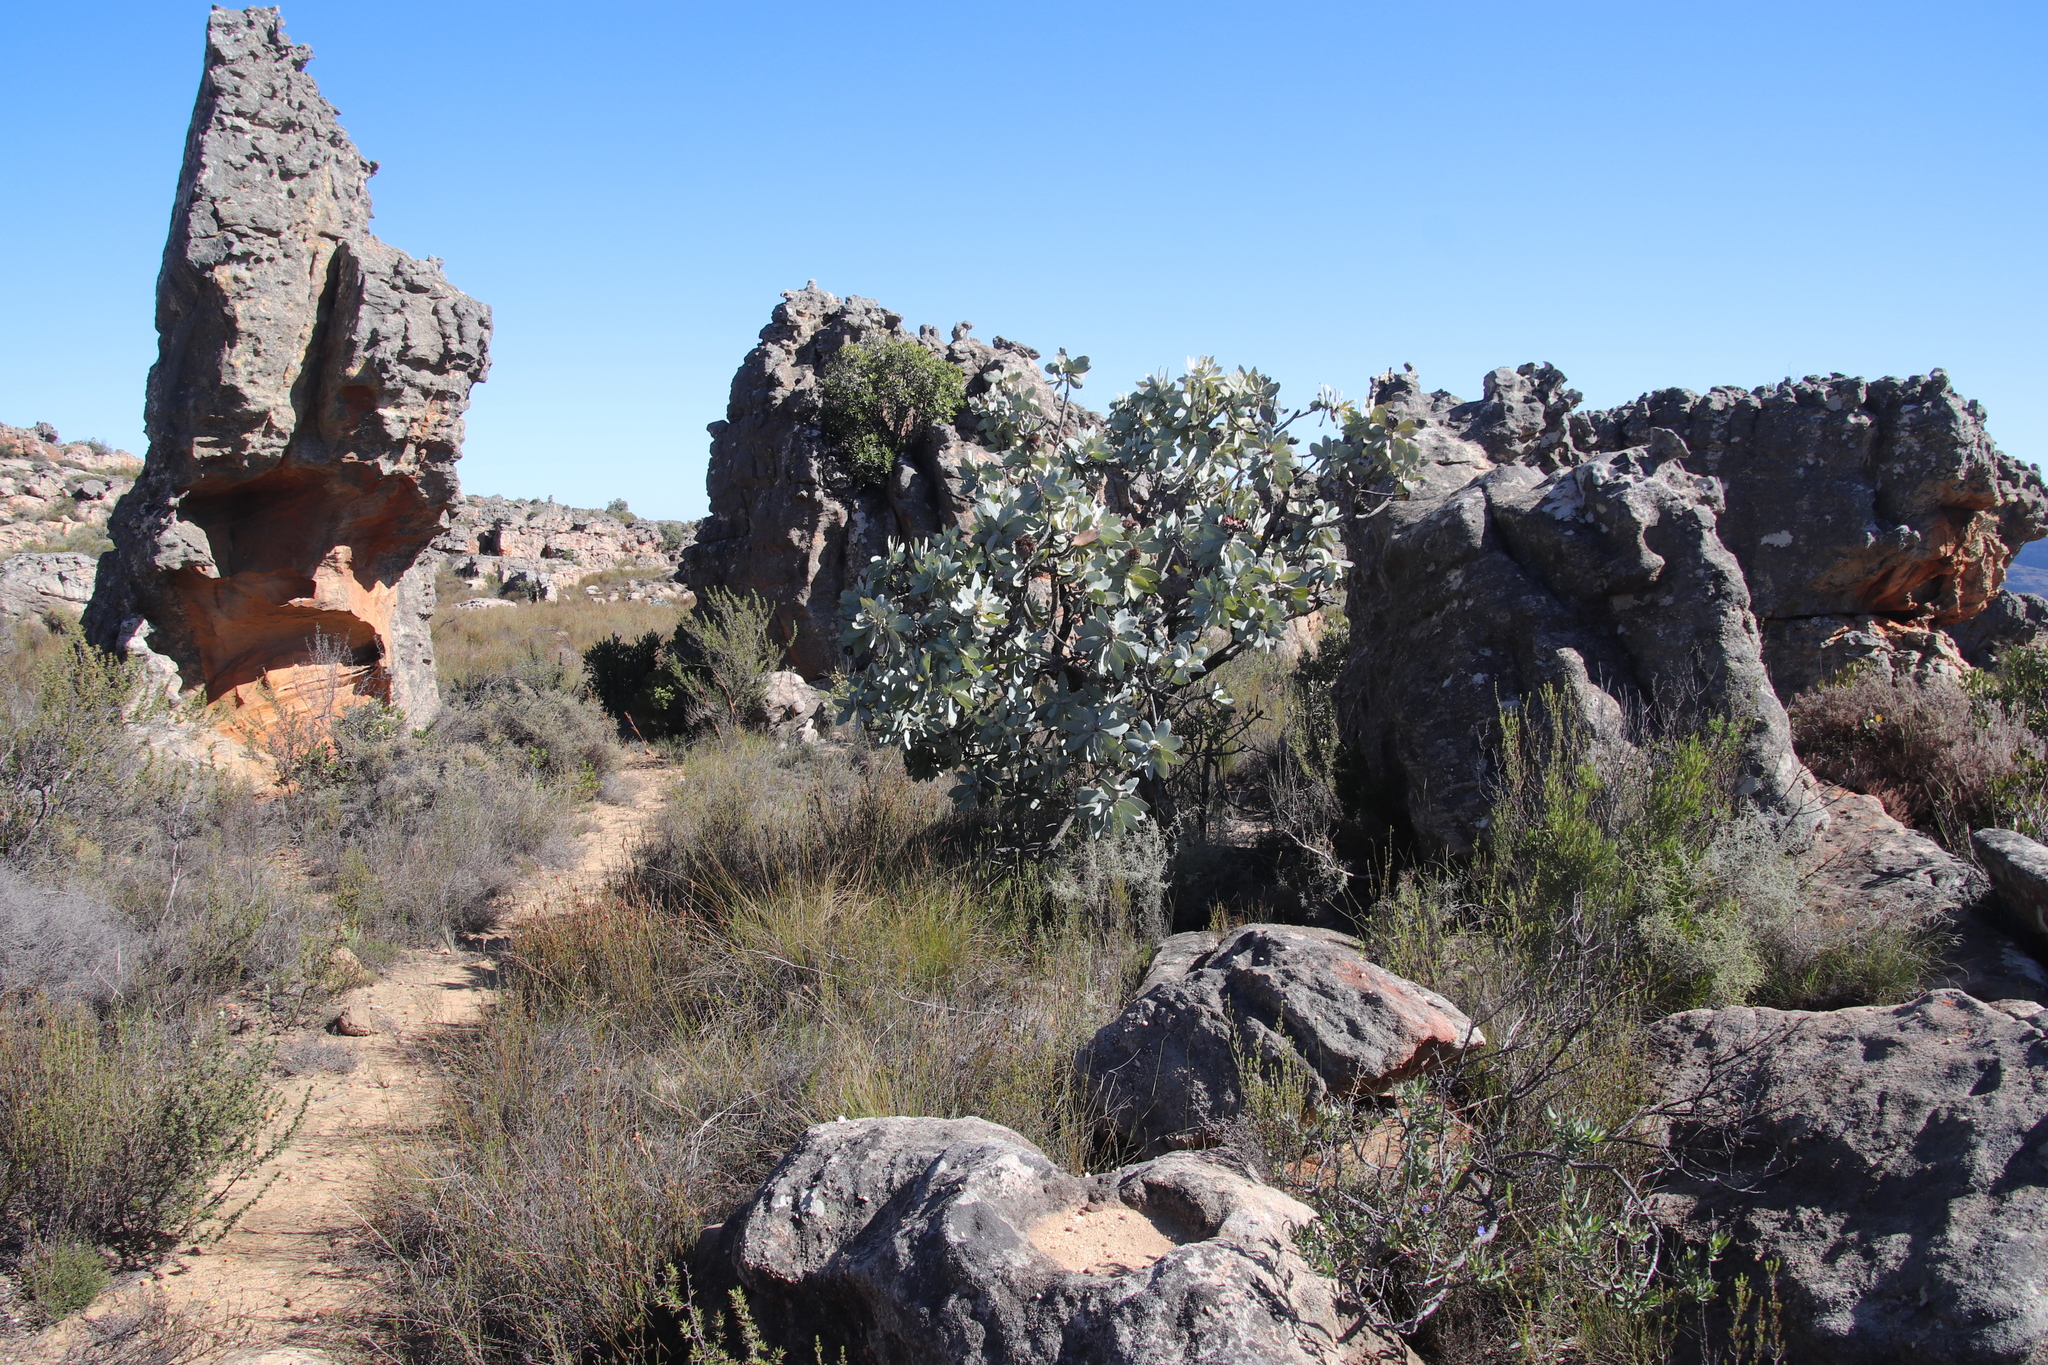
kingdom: Plantae
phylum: Tracheophyta
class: Magnoliopsida
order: Proteales
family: Proteaceae
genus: Protea
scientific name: Protea nitida
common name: Tree protea
